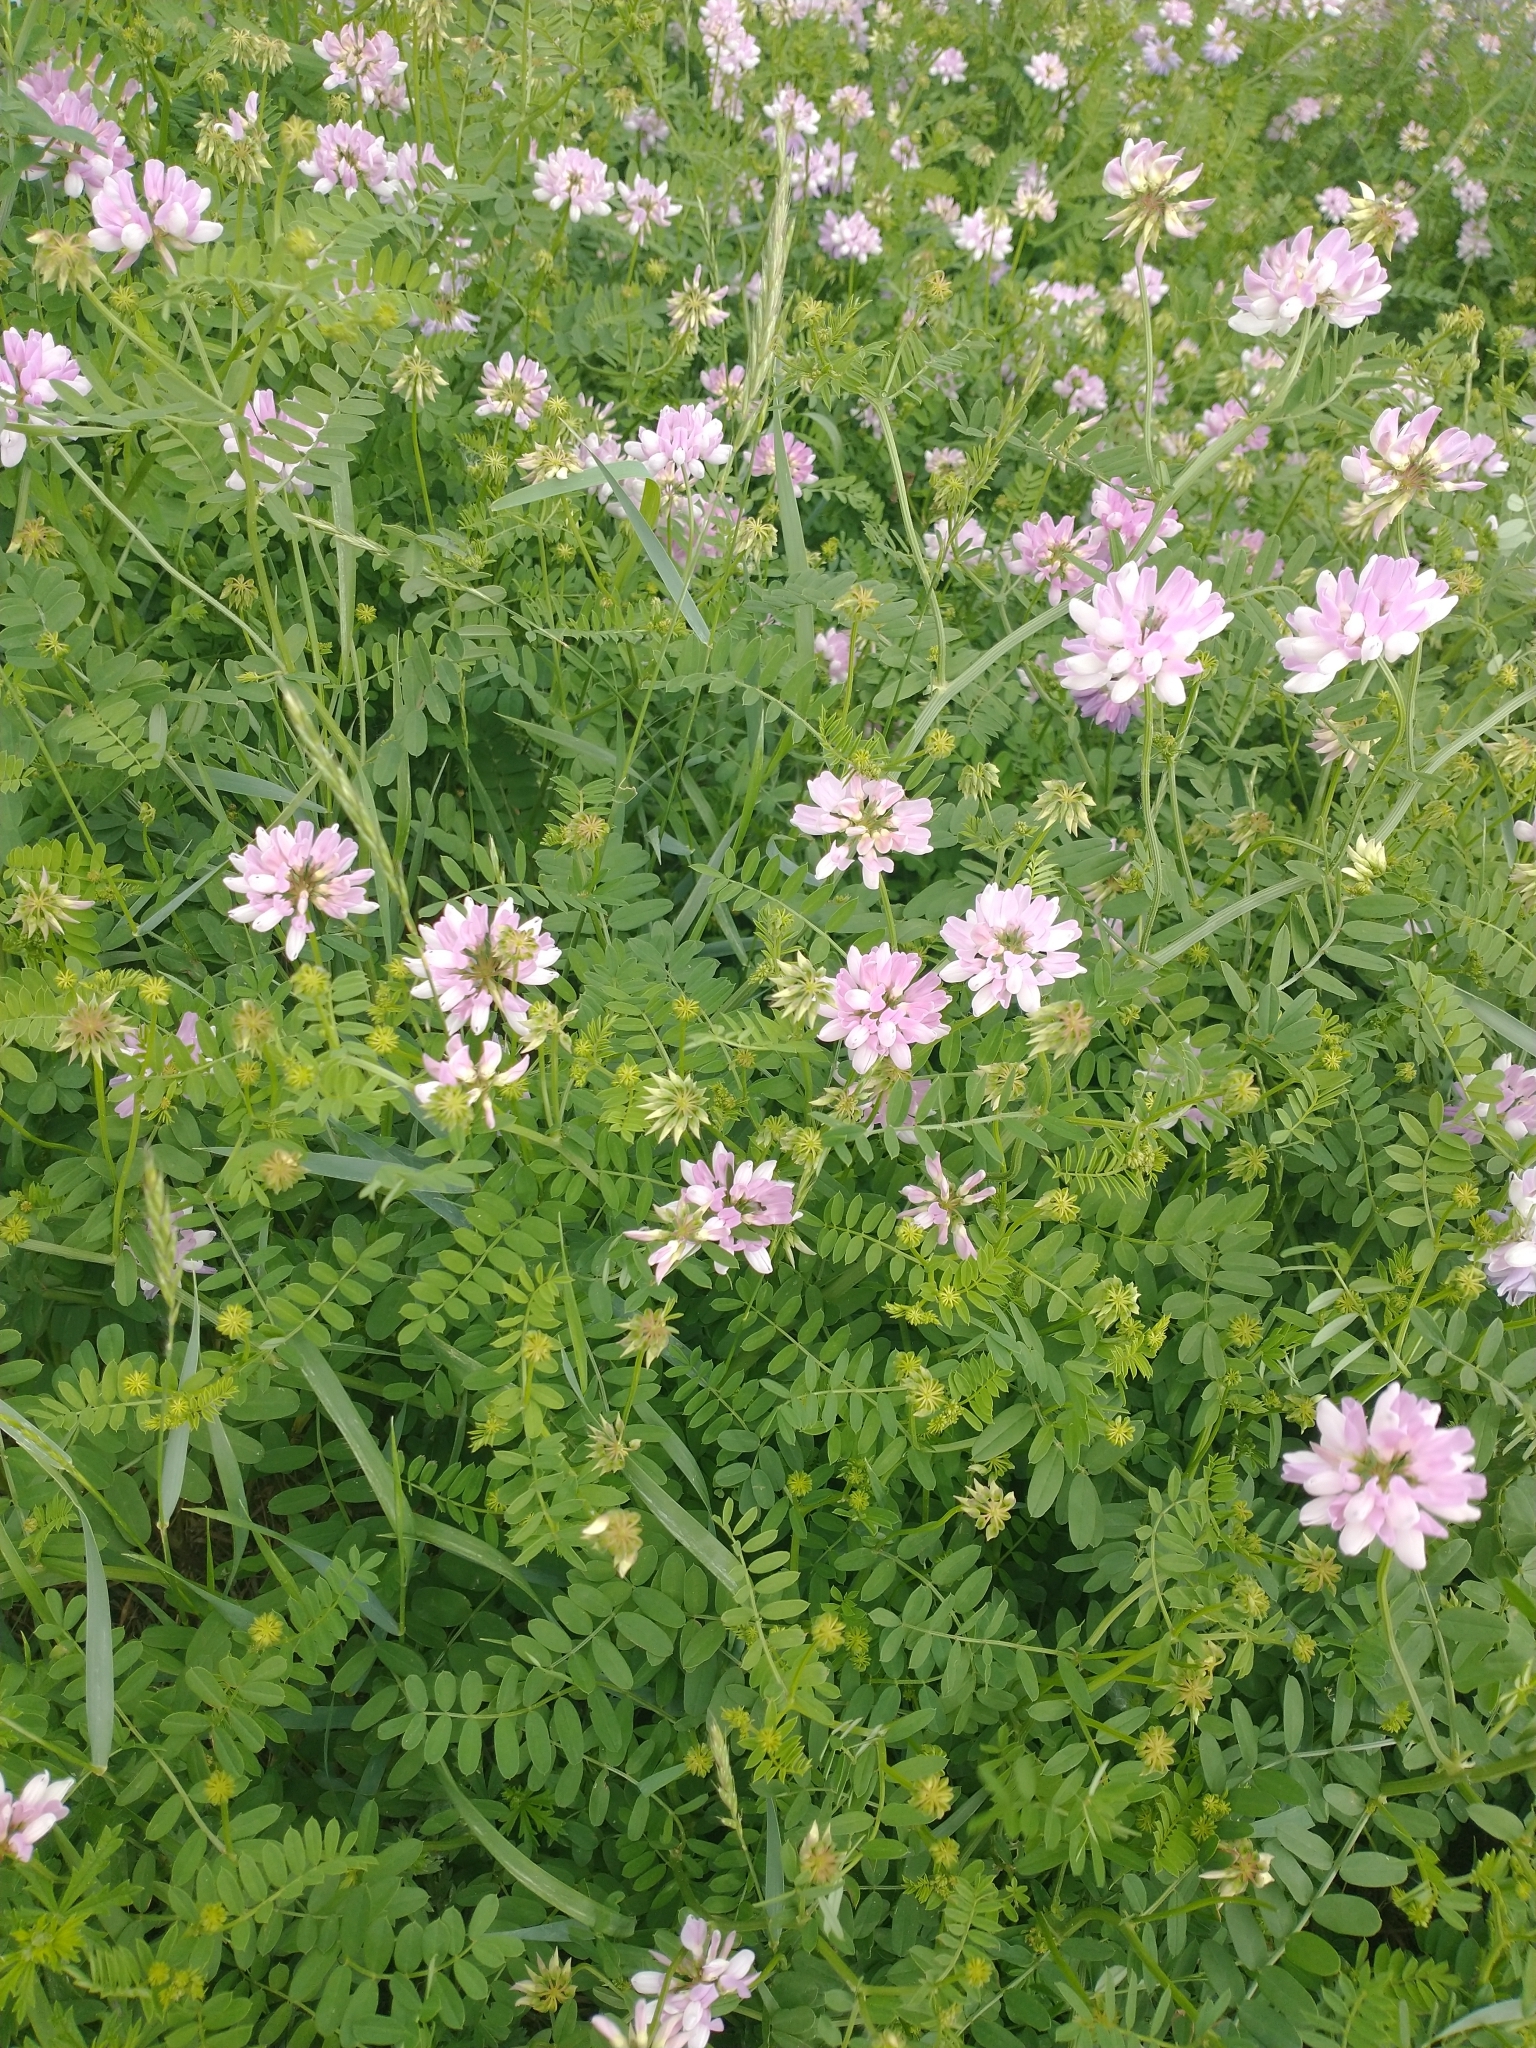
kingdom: Plantae
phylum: Tracheophyta
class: Magnoliopsida
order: Fabales
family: Fabaceae
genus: Coronilla
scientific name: Coronilla varia
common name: Crownvetch
